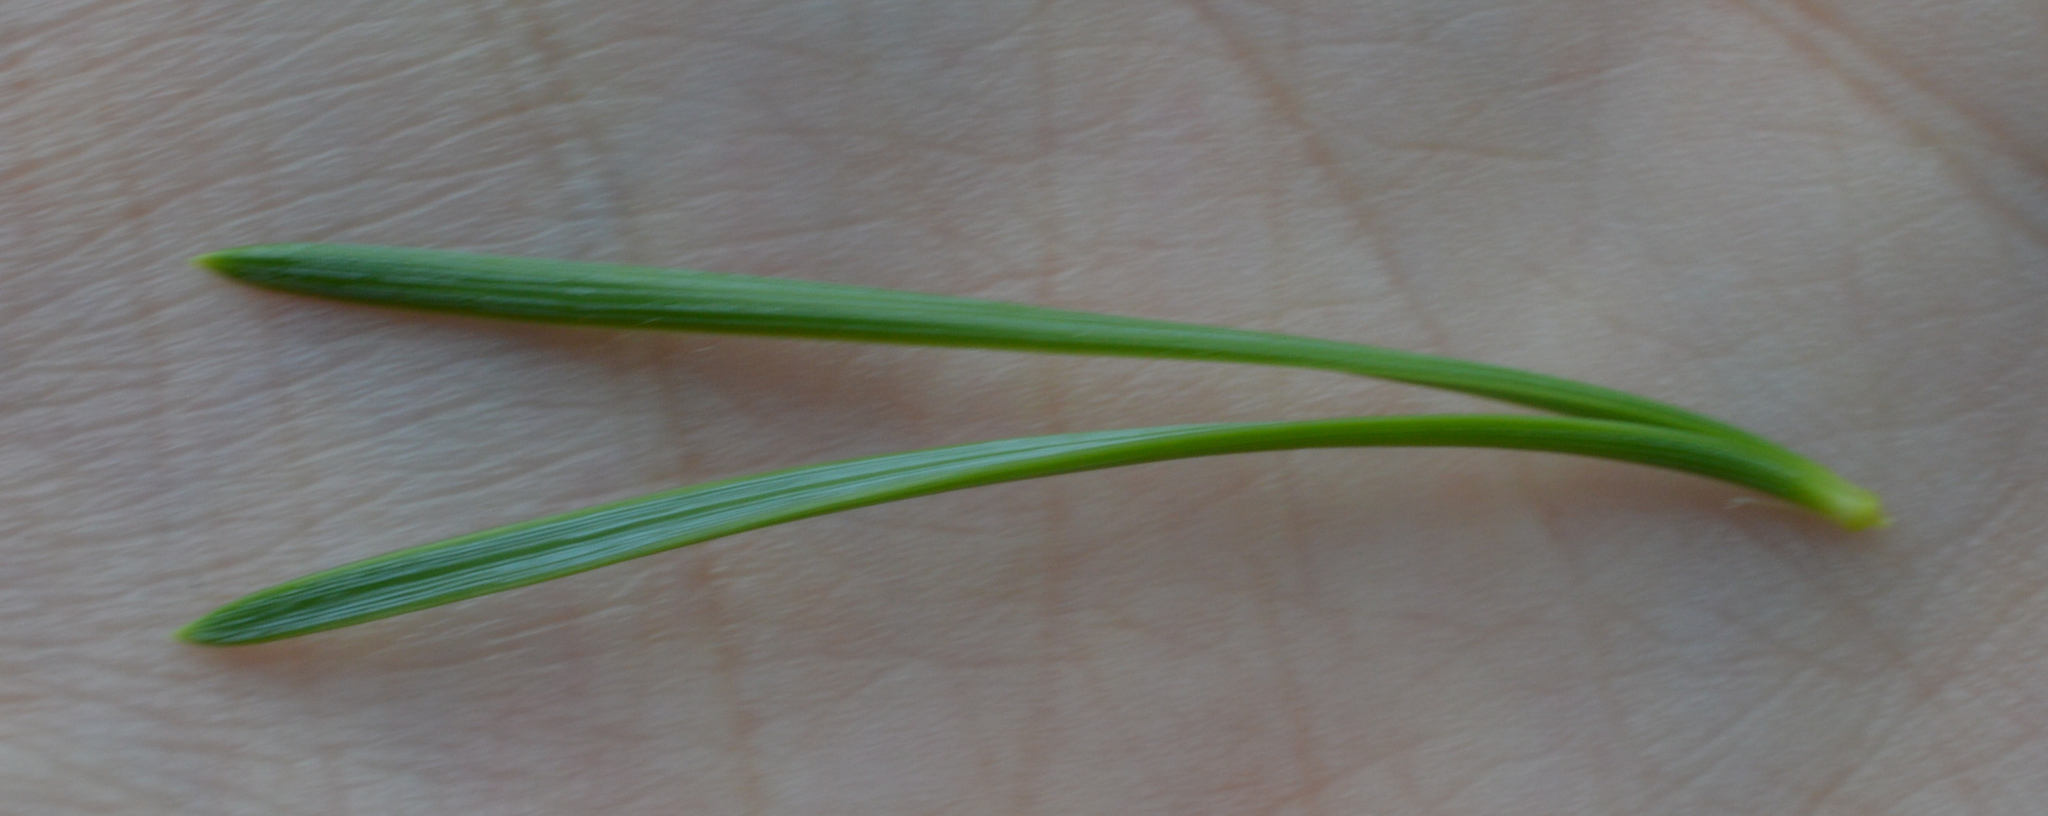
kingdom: Plantae
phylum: Tracheophyta
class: Pinopsida
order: Pinales
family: Pinaceae
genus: Pinus
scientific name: Pinus sylvestris
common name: Scots pine
